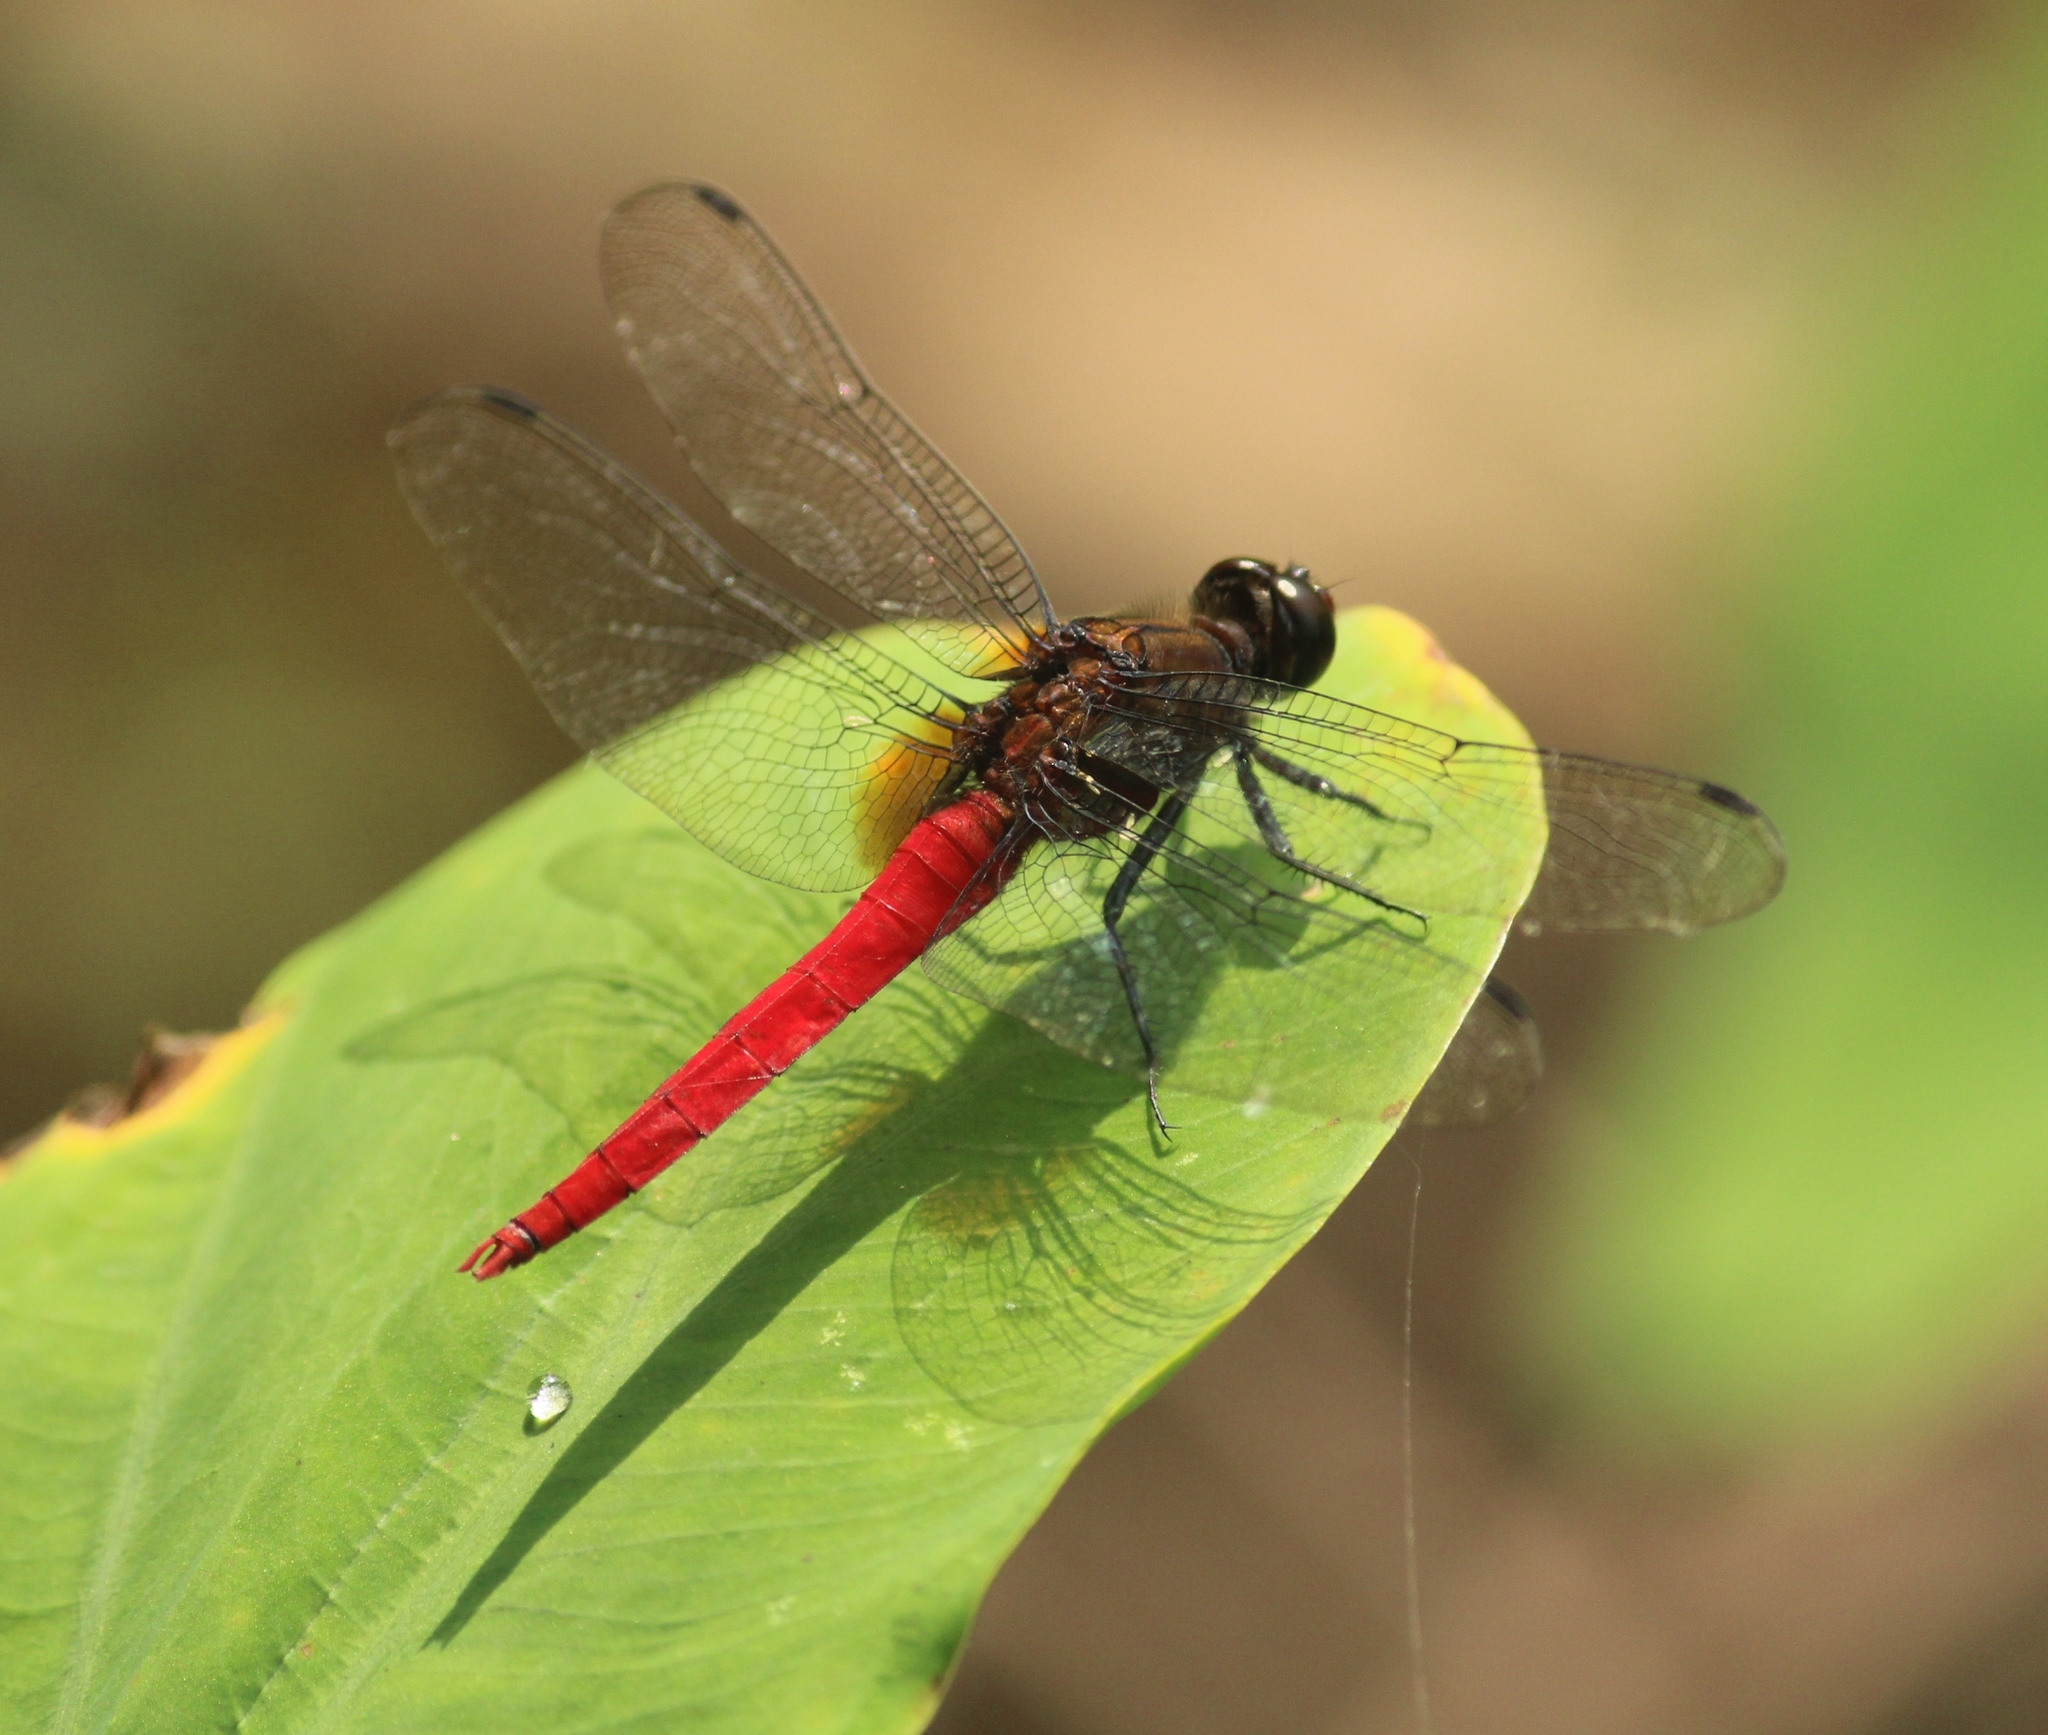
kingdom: Animalia
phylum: Arthropoda
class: Insecta
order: Odonata
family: Libellulidae
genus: Orthetrum
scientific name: Orthetrum chrysis
